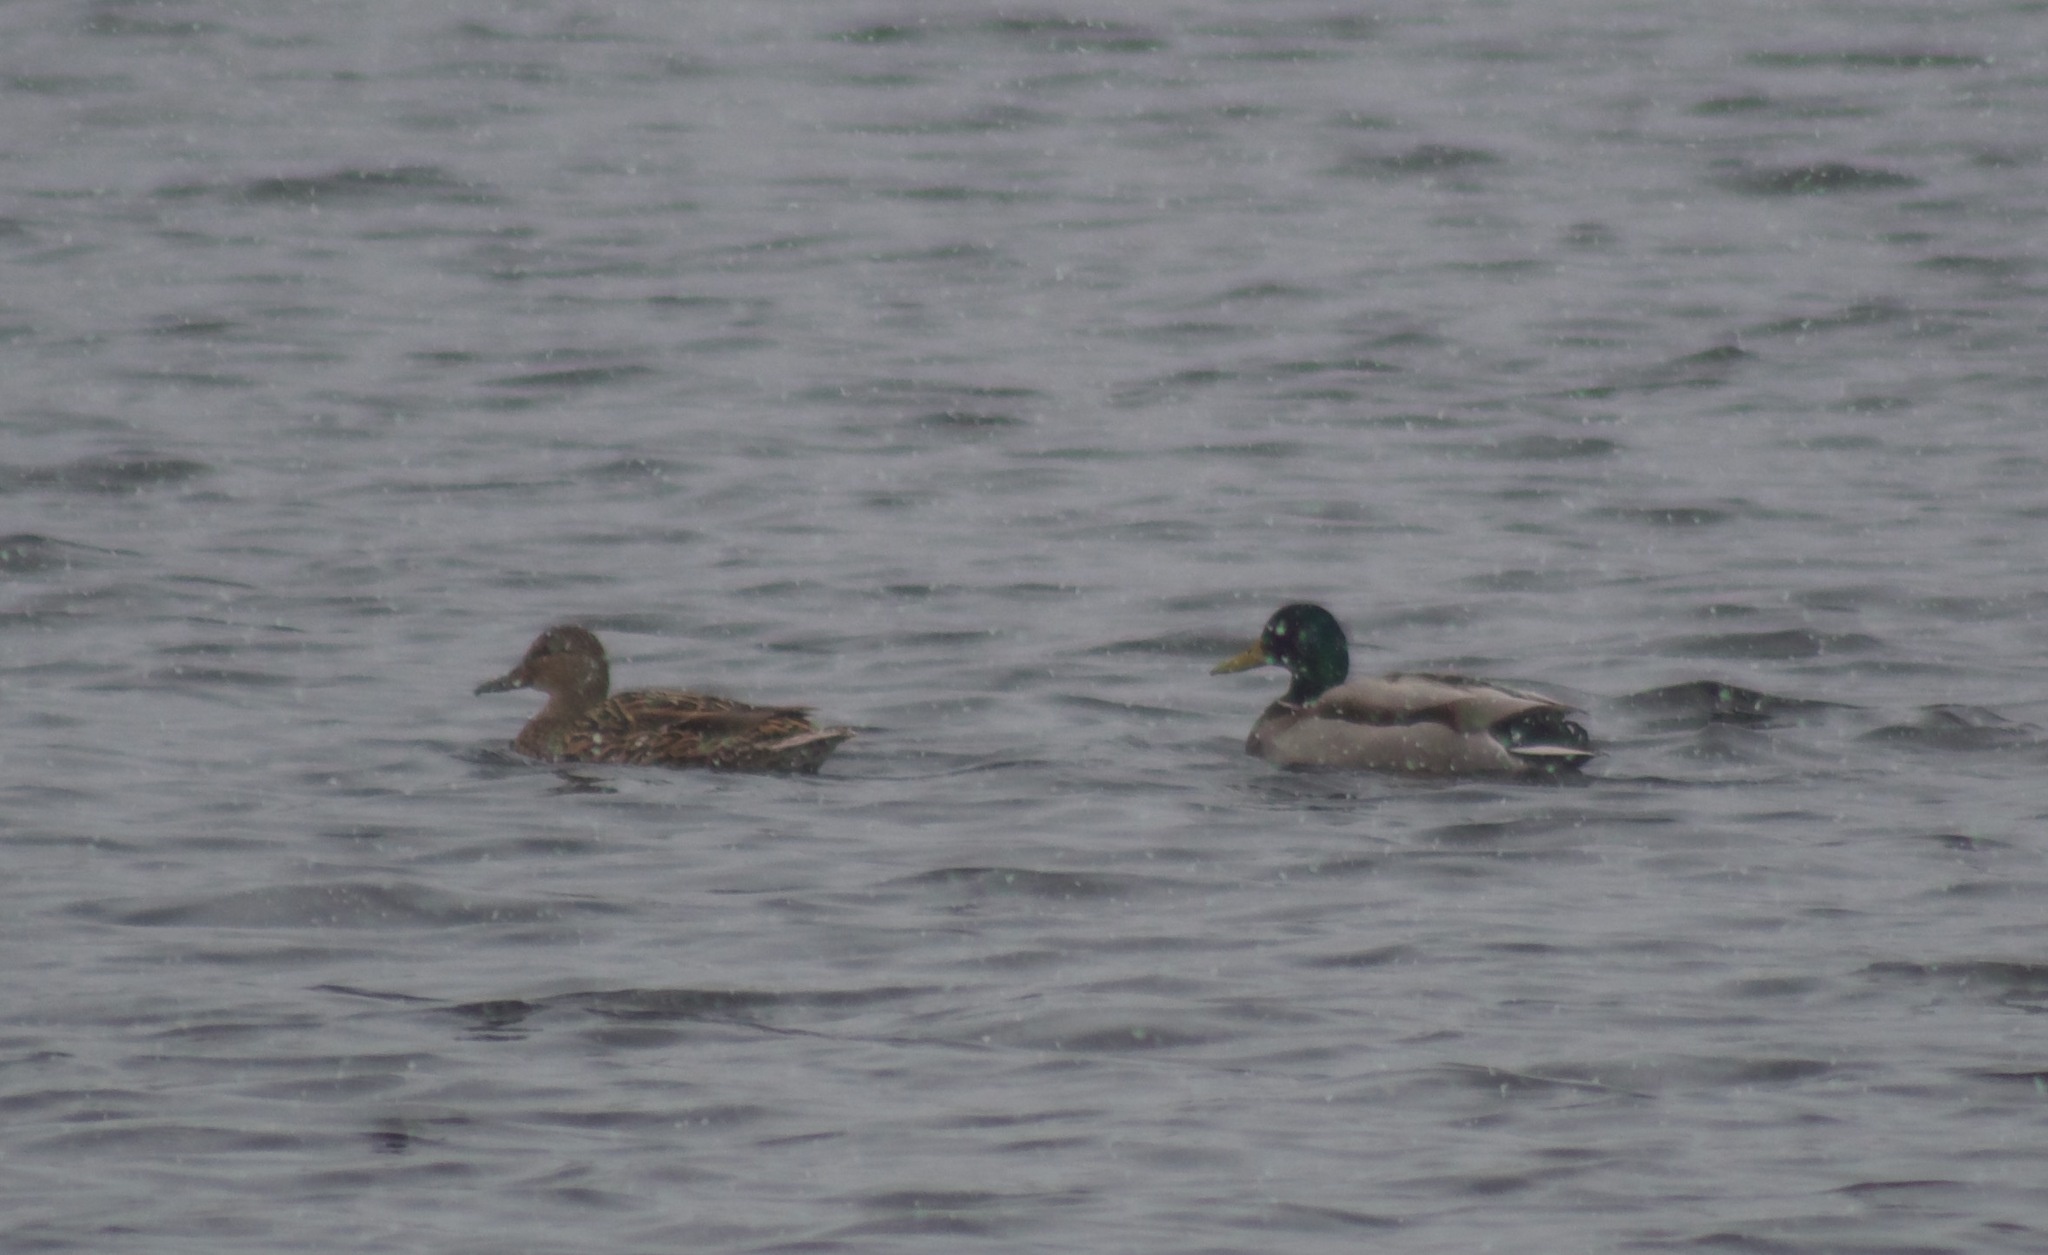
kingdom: Animalia
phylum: Chordata
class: Aves
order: Anseriformes
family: Anatidae
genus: Anas
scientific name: Anas platyrhynchos
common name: Mallard
